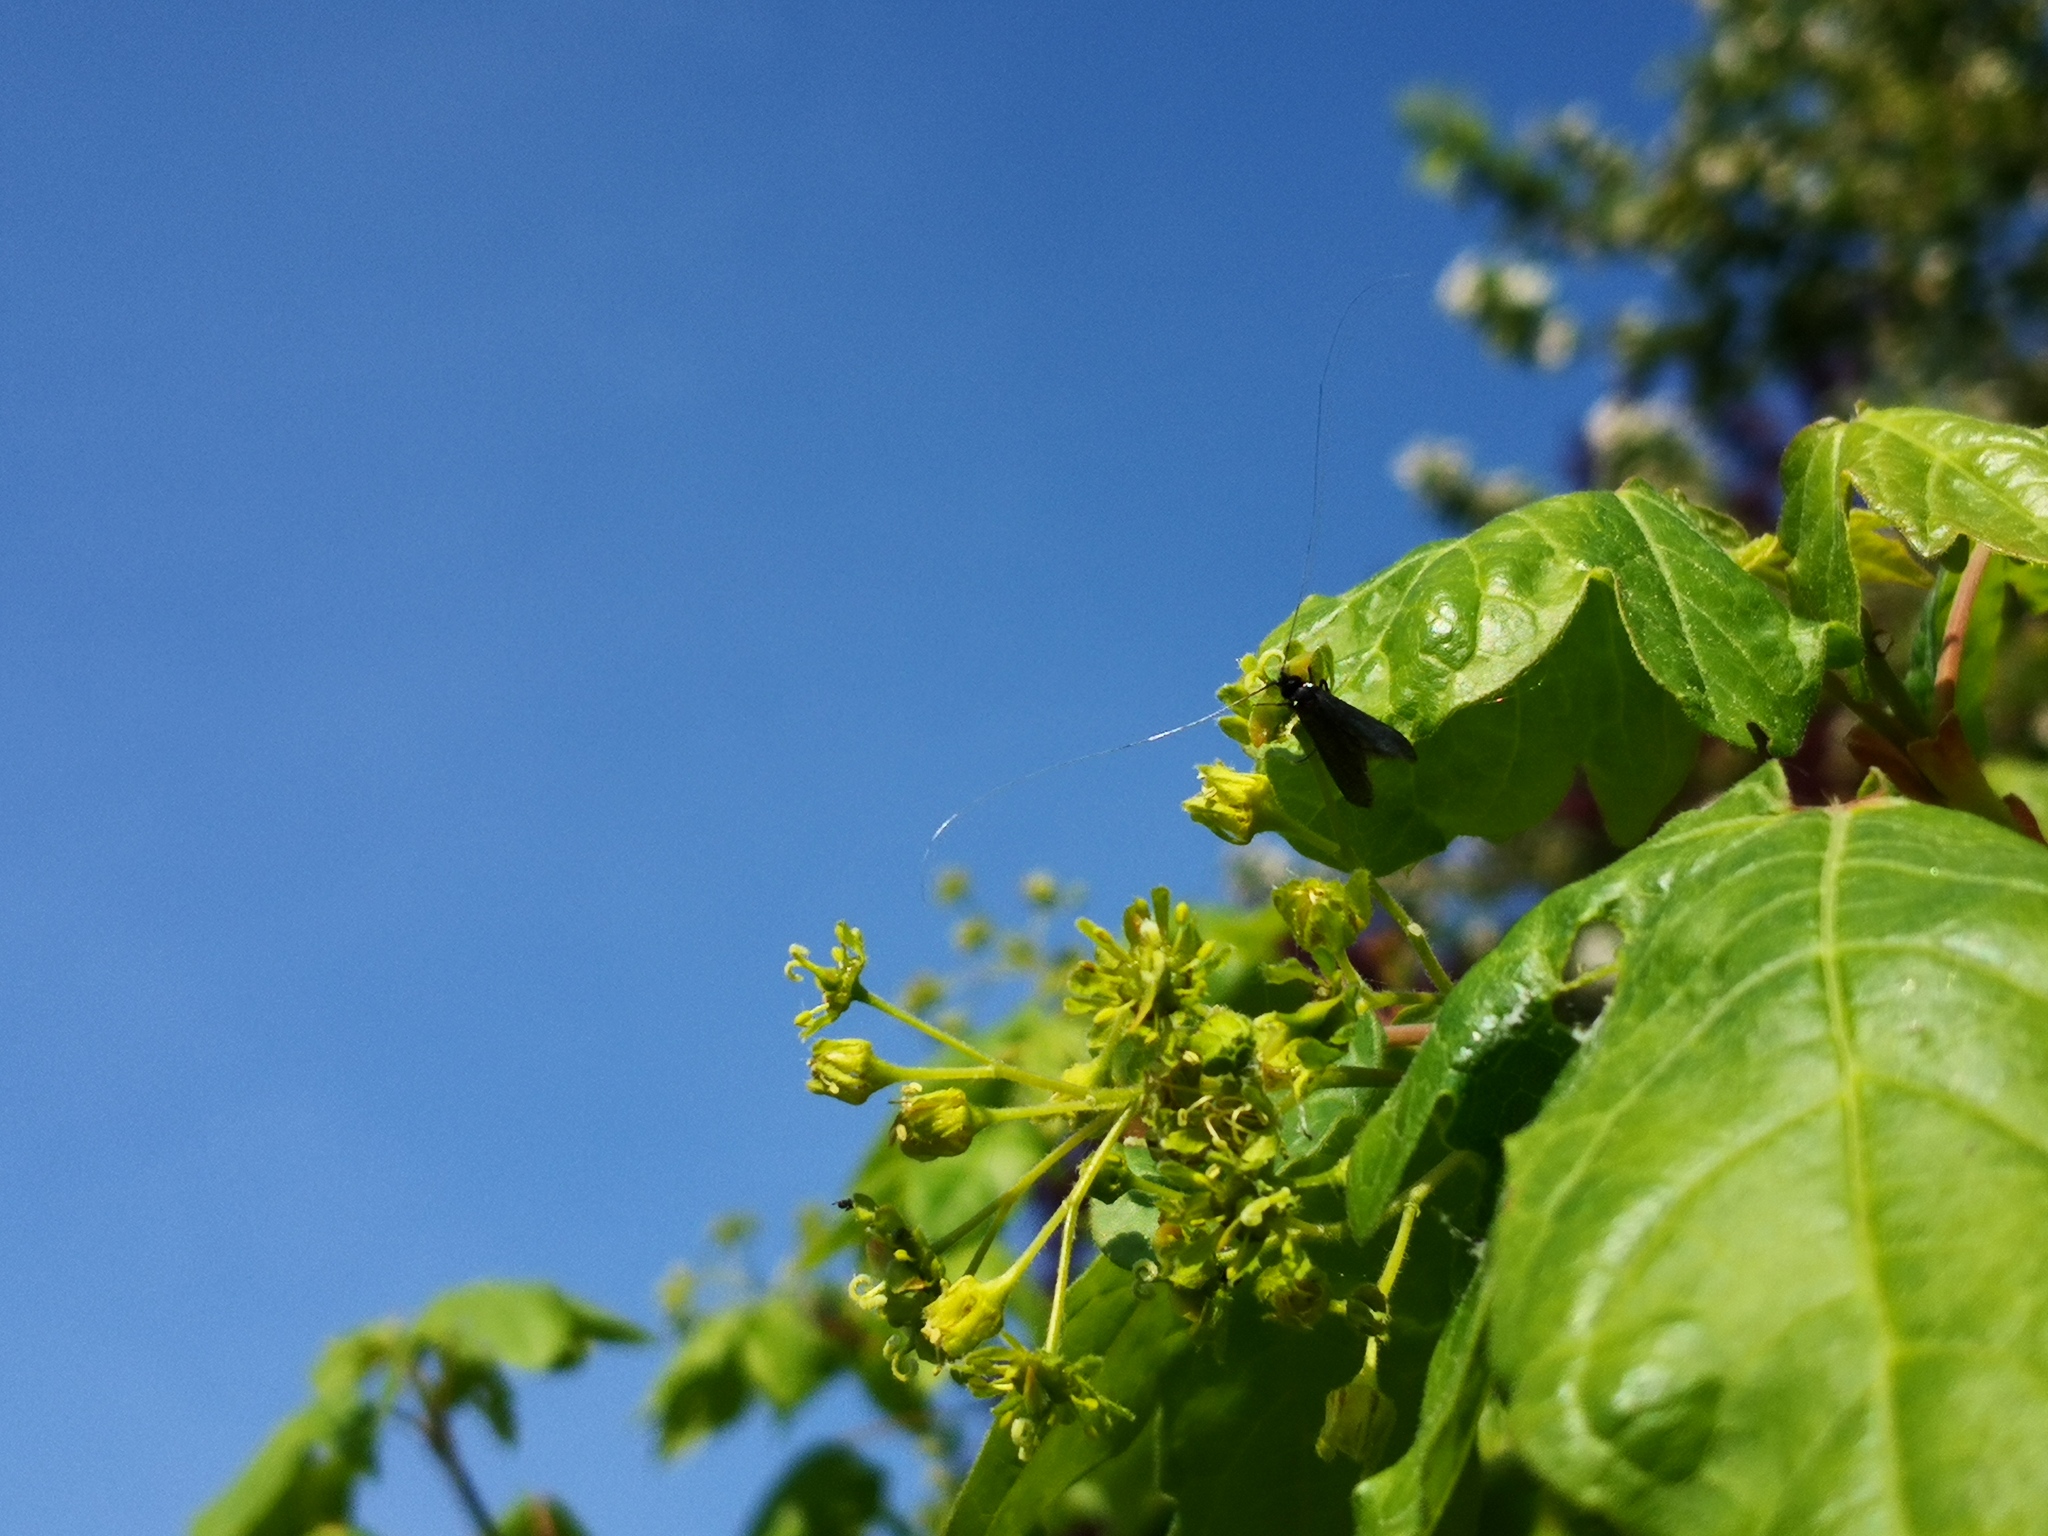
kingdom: Animalia
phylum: Arthropoda
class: Insecta
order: Lepidoptera
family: Adelidae
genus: Adela
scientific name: Adela viridella
